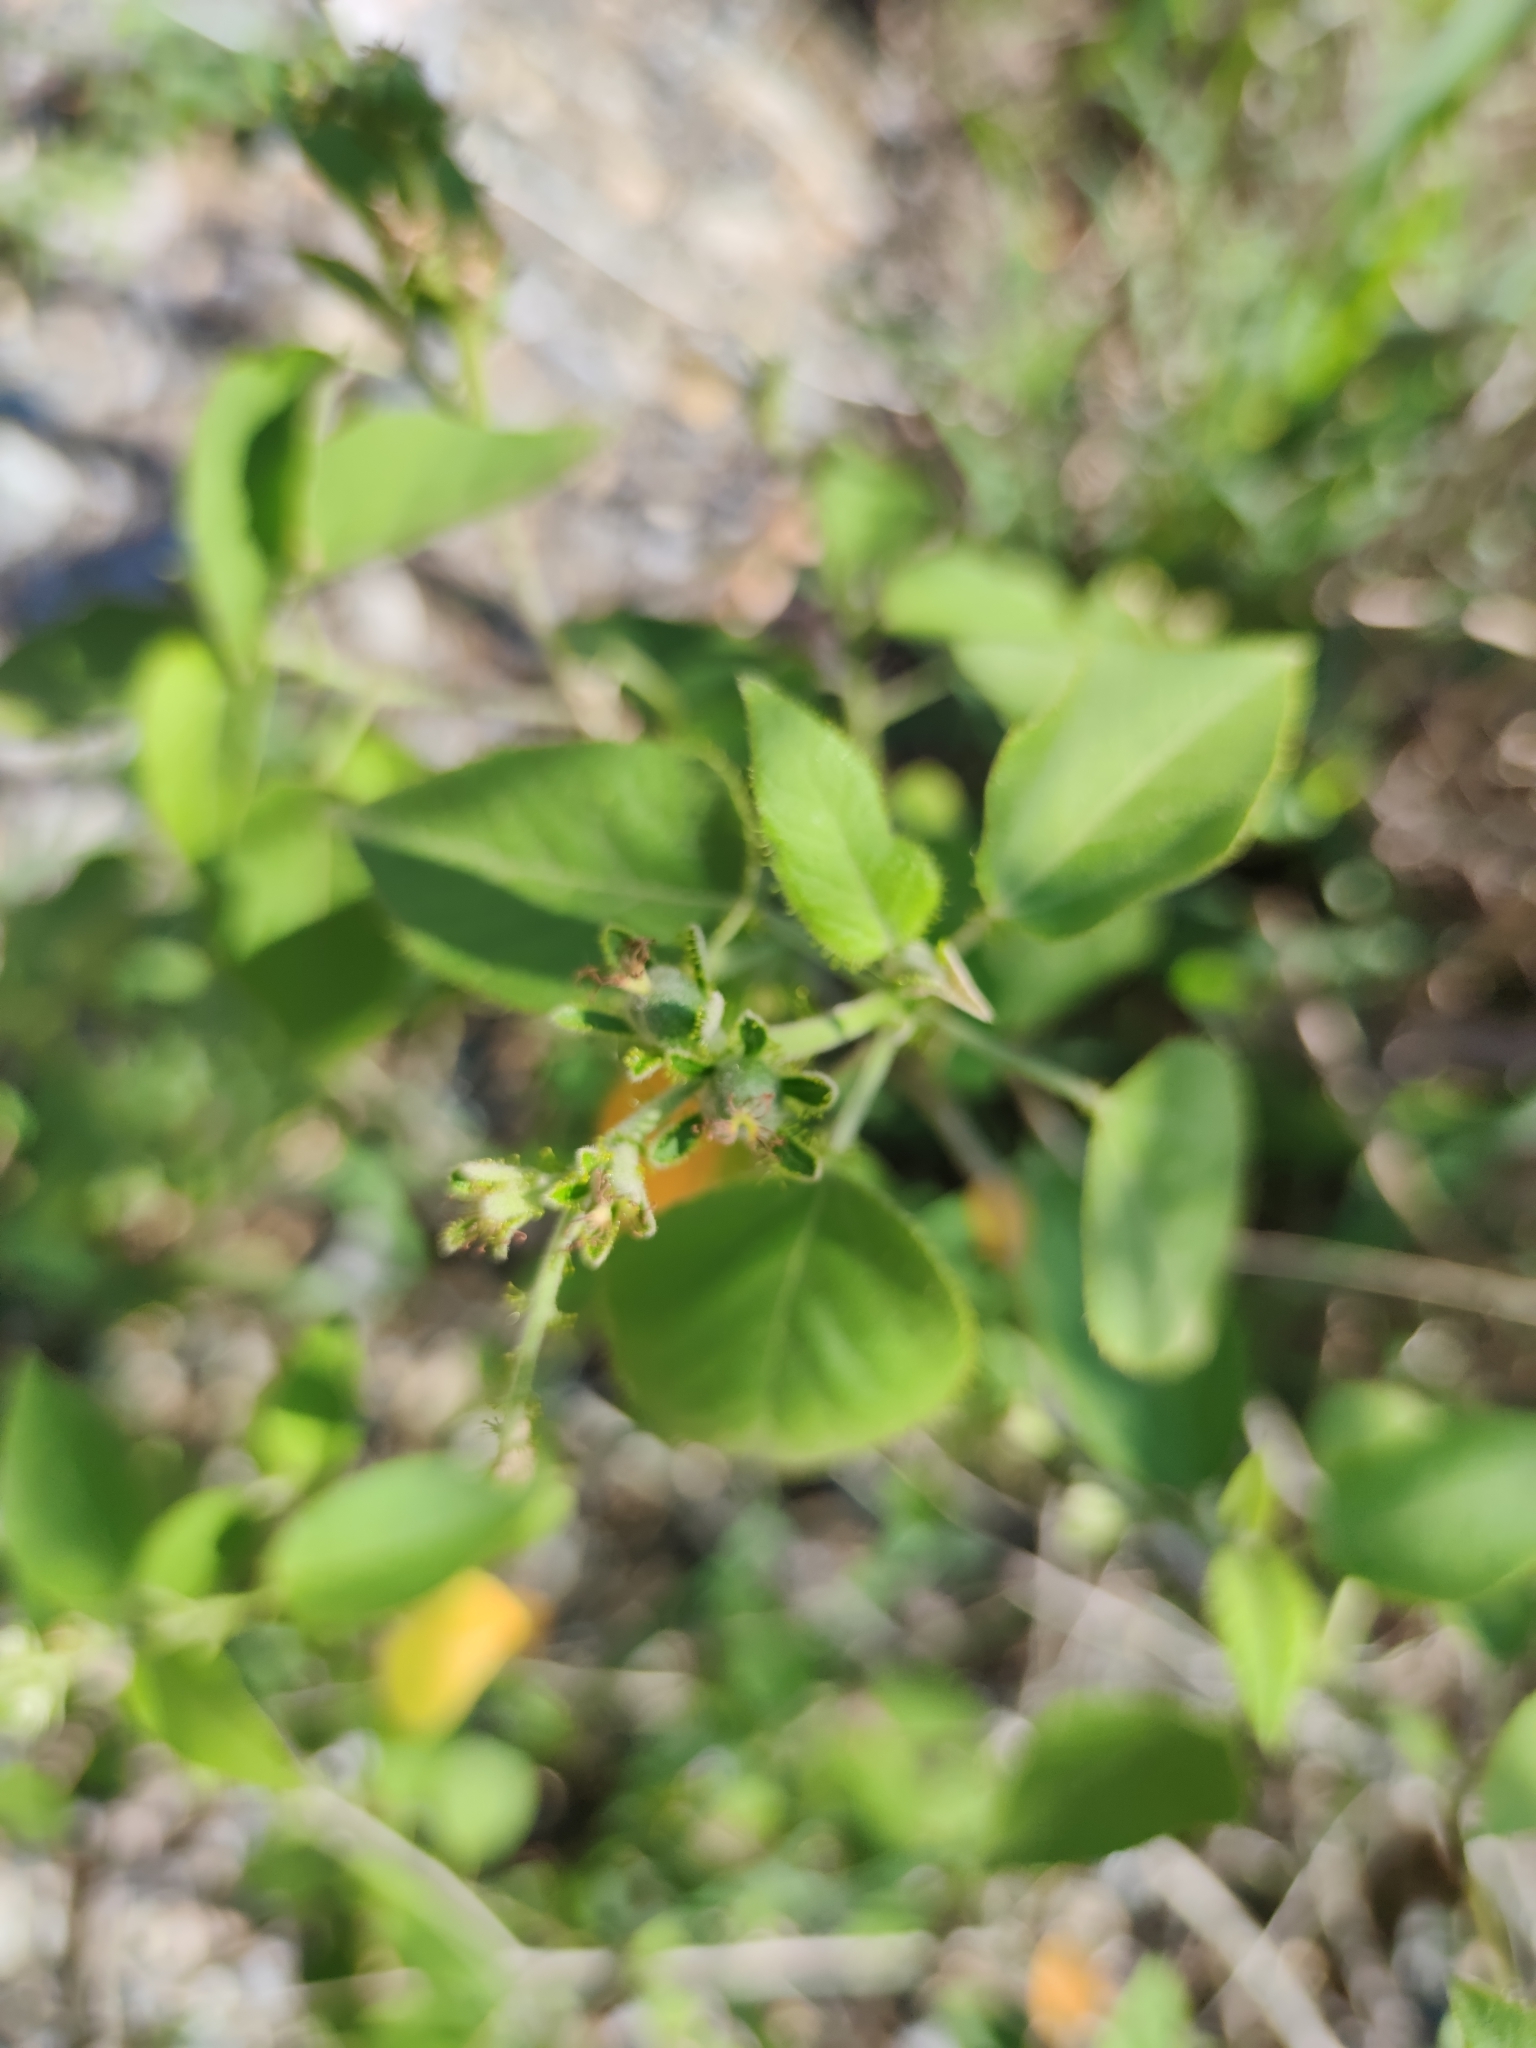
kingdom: Plantae
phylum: Tracheophyta
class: Magnoliopsida
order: Malpighiales
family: Euphorbiaceae
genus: Croton
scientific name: Croton ciliatoglandulifer
